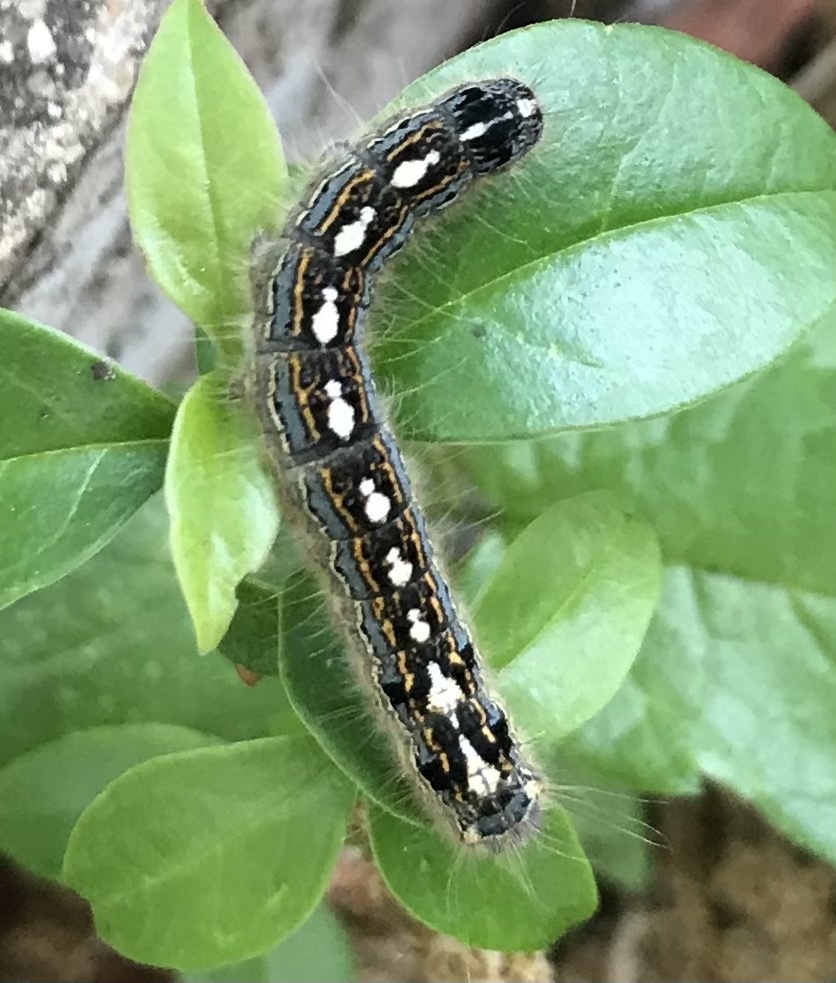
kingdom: Animalia
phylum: Arthropoda
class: Insecta
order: Lepidoptera
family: Lasiocampidae
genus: Malacosoma
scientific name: Malacosoma disstria
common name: Forest tent caterpillar
